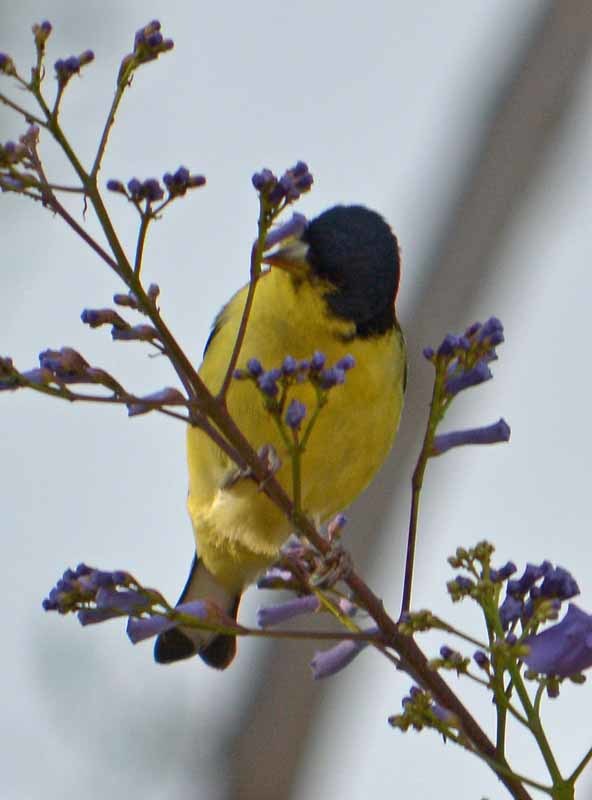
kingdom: Animalia
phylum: Chordata
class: Aves
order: Passeriformes
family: Fringillidae
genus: Spinus
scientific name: Spinus psaltria
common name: Lesser goldfinch
